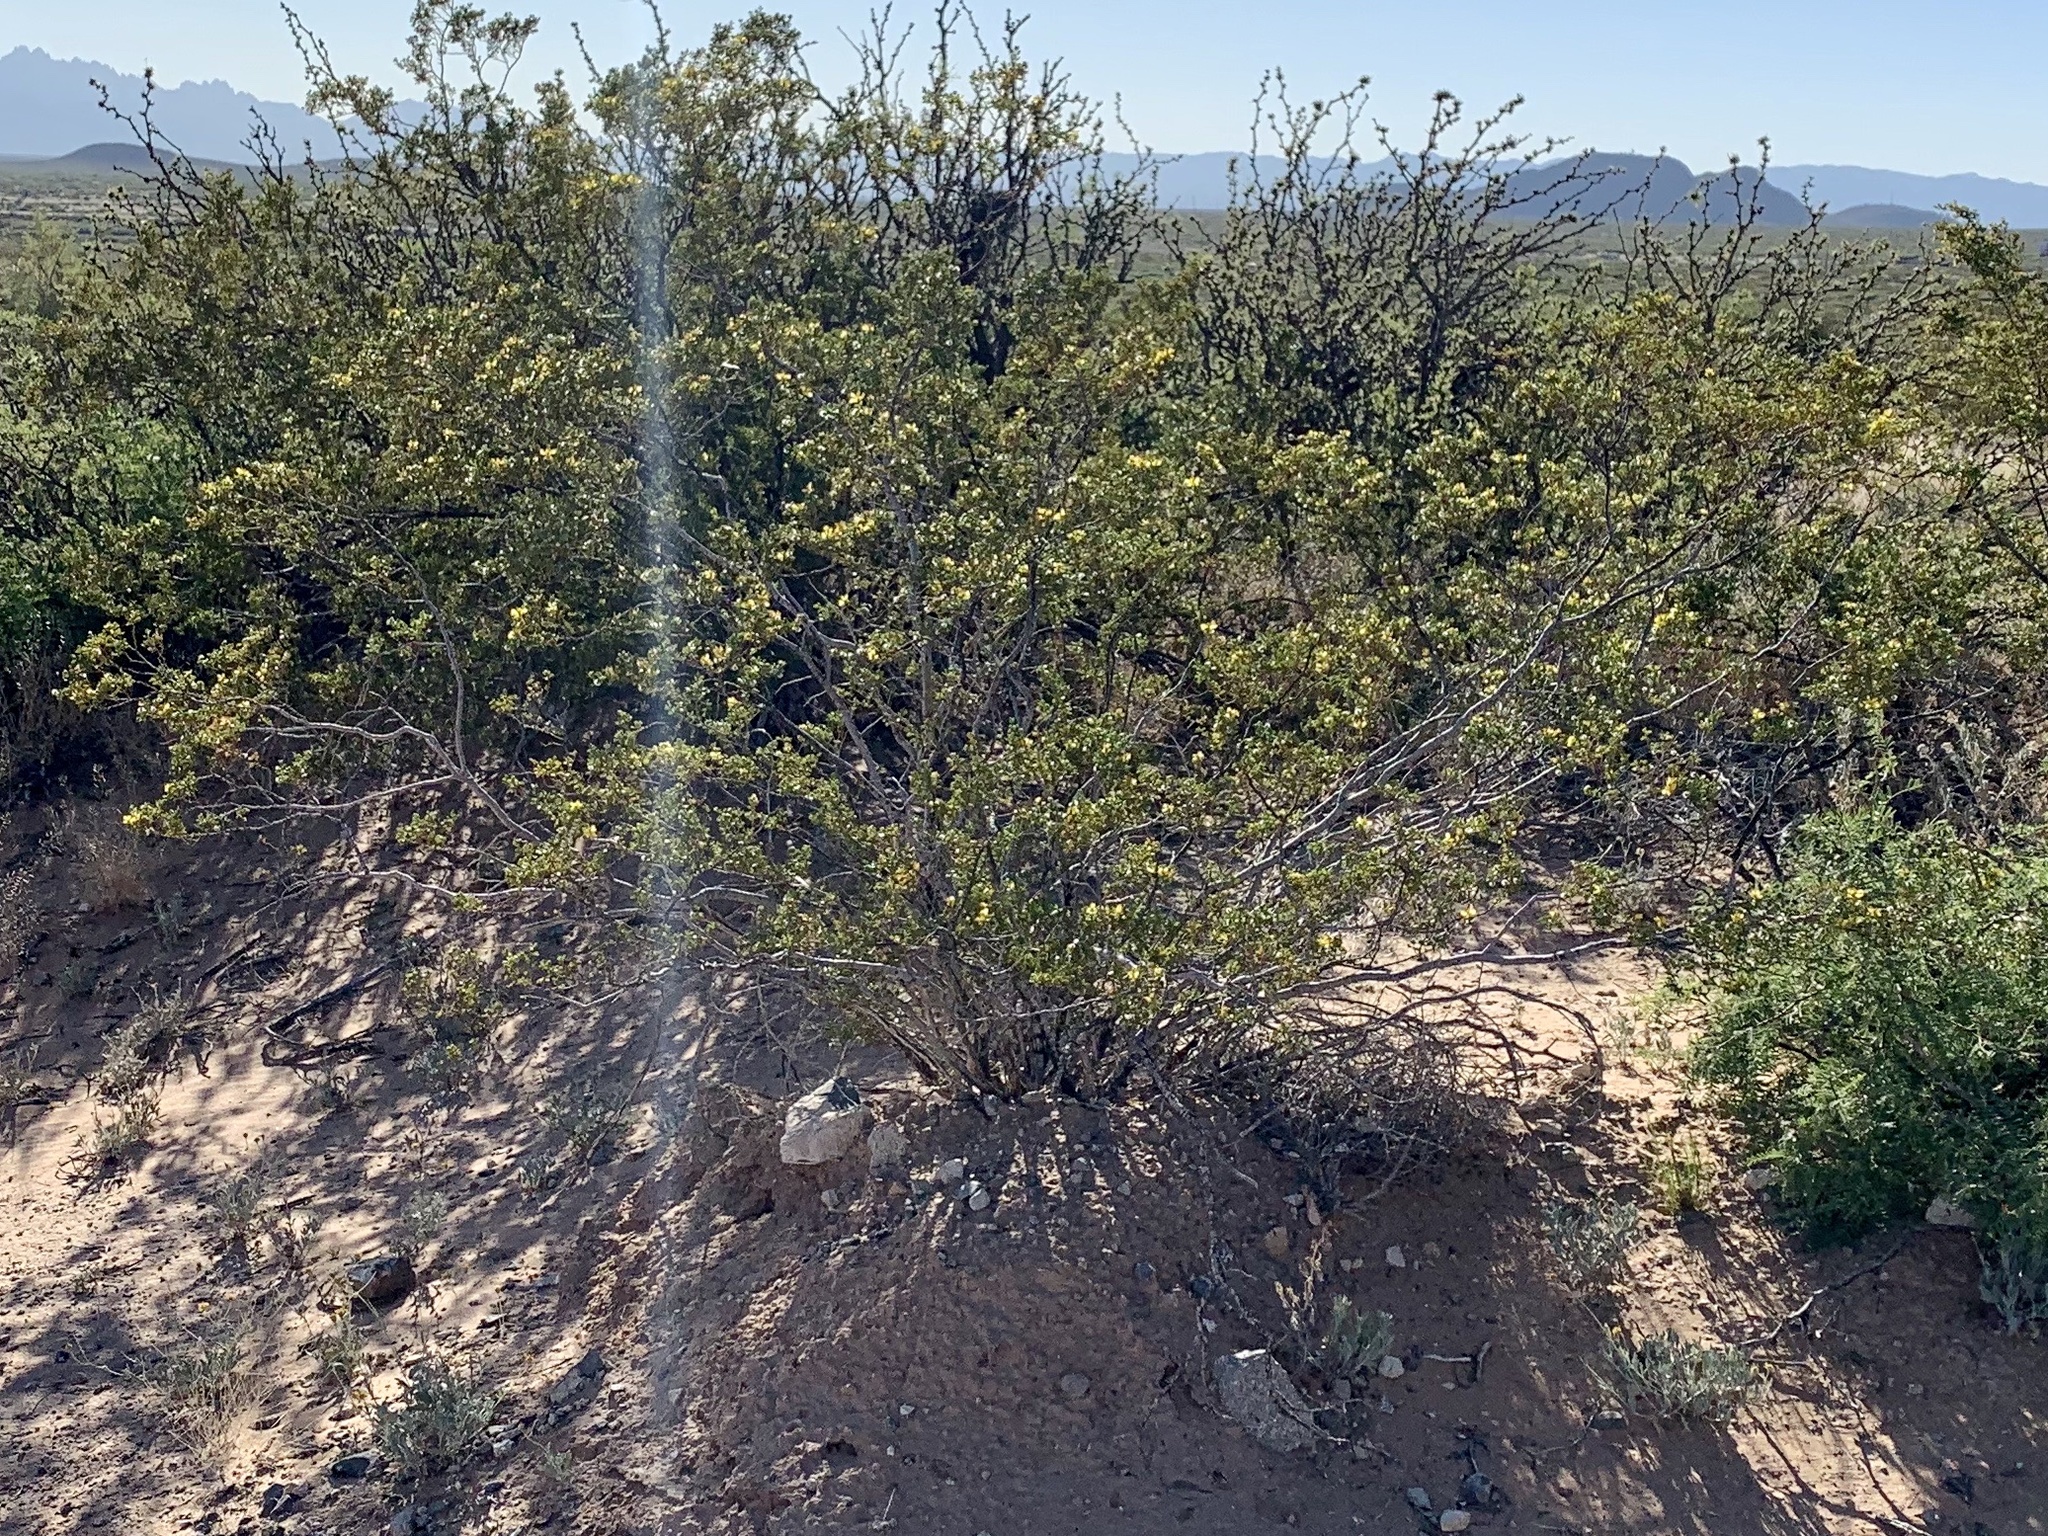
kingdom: Plantae
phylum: Tracheophyta
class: Magnoliopsida
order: Zygophyllales
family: Zygophyllaceae
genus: Larrea
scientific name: Larrea tridentata
